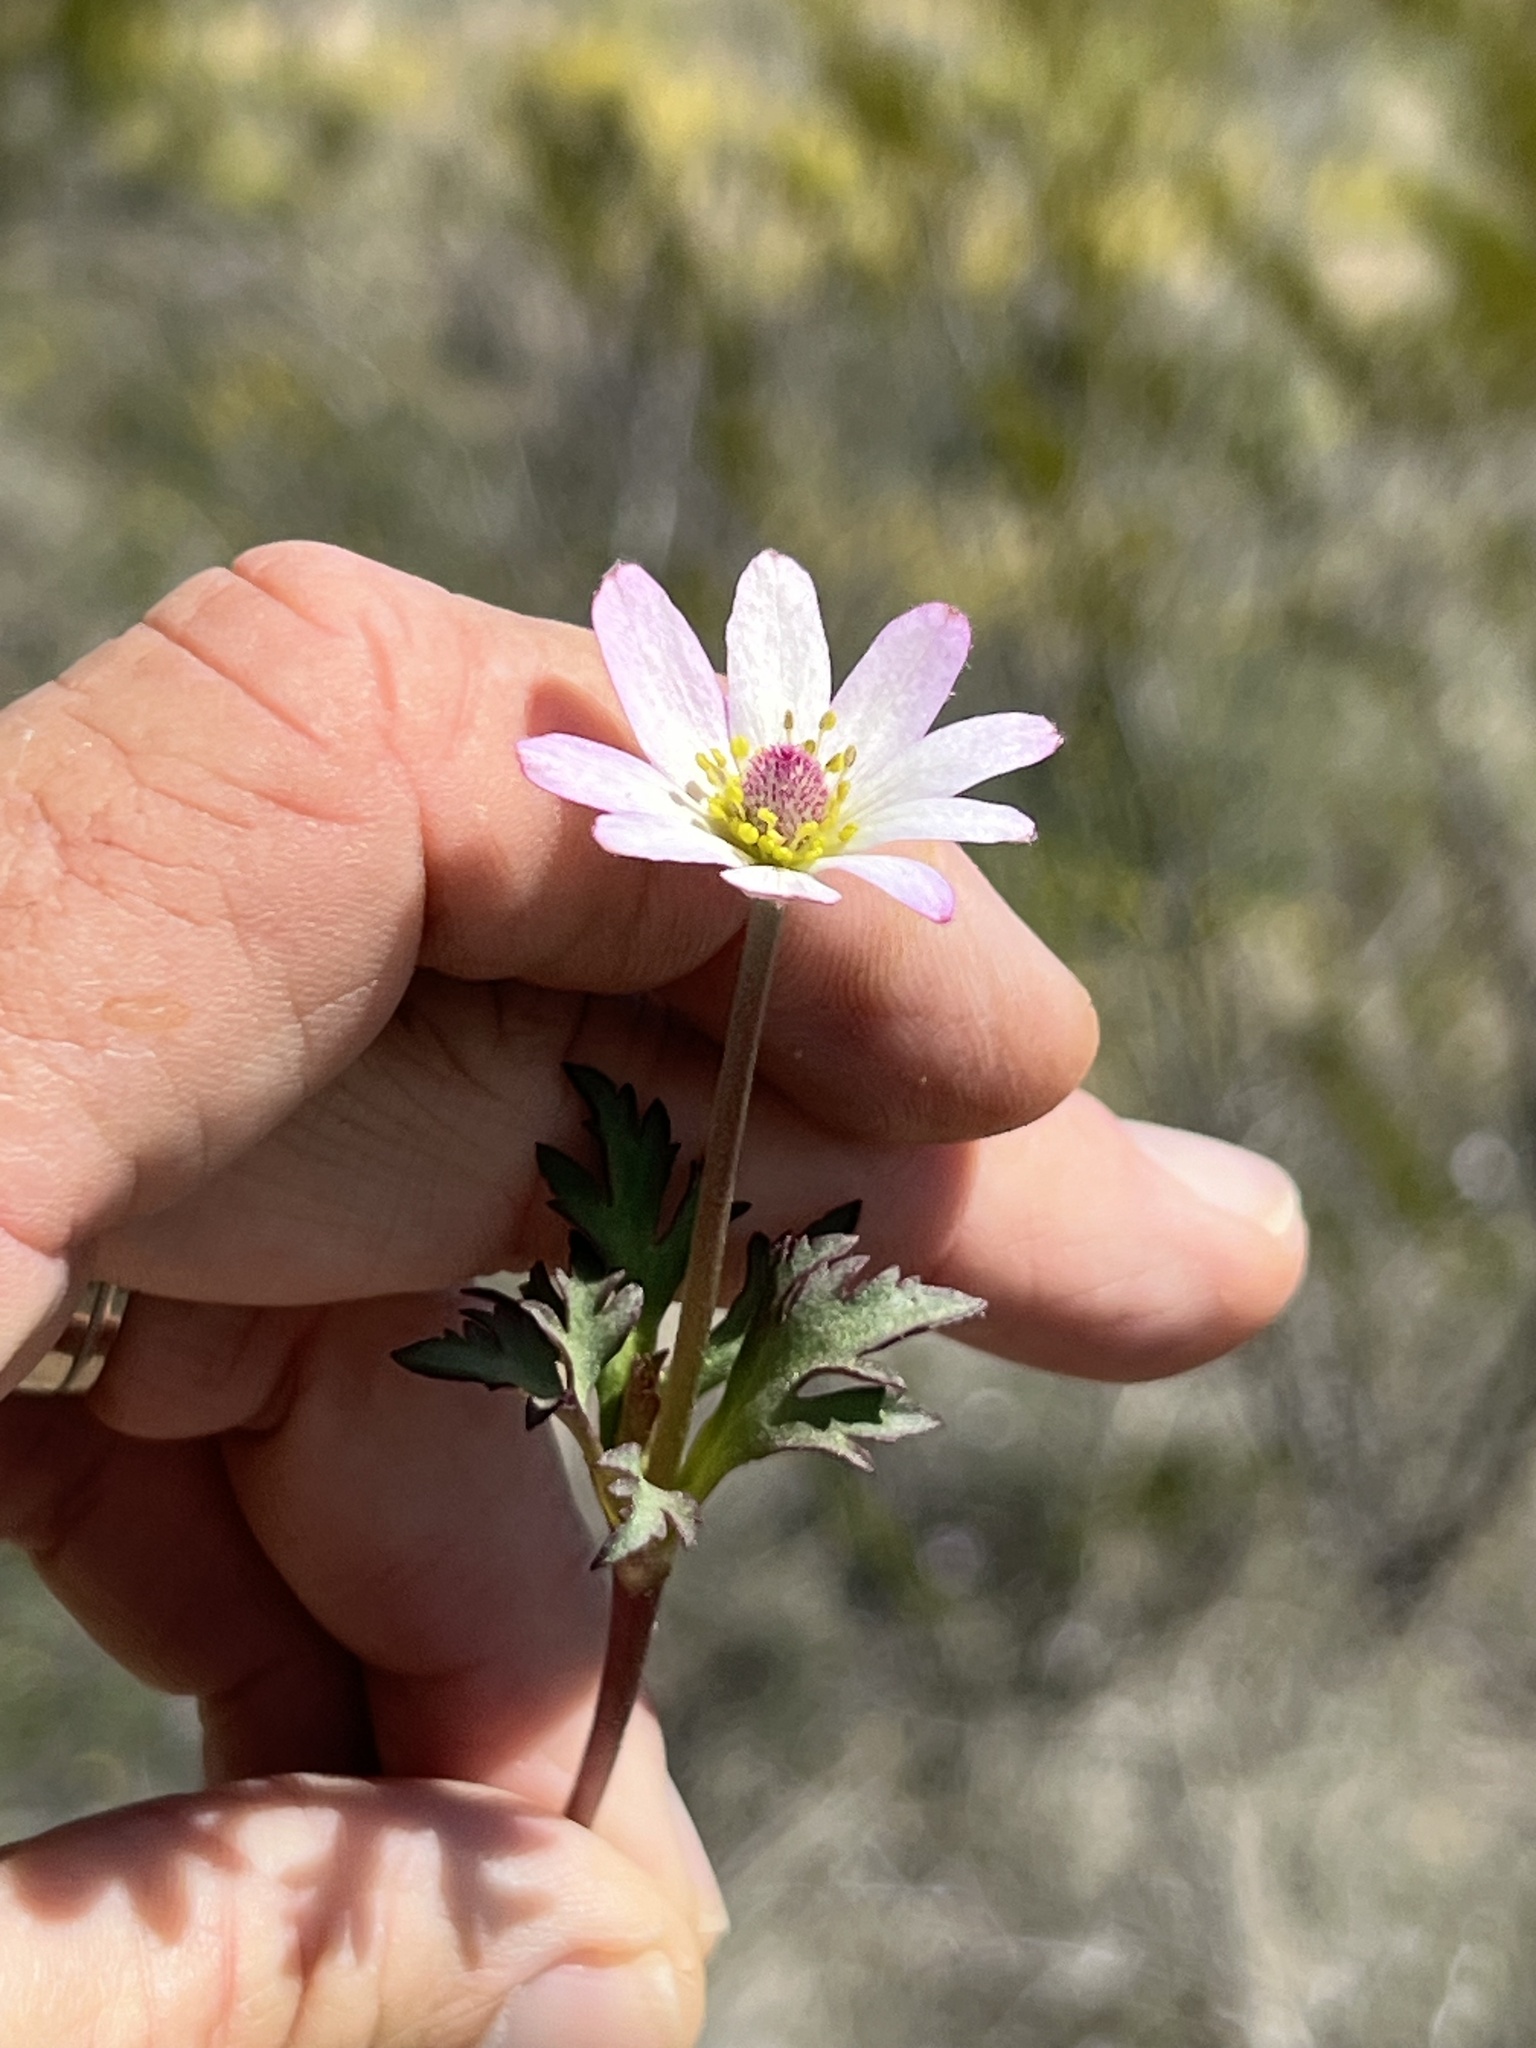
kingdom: Plantae
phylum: Tracheophyta
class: Magnoliopsida
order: Ranunculales
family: Ranunculaceae
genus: Anemone
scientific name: Anemone tuberosa
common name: Desert anemone
